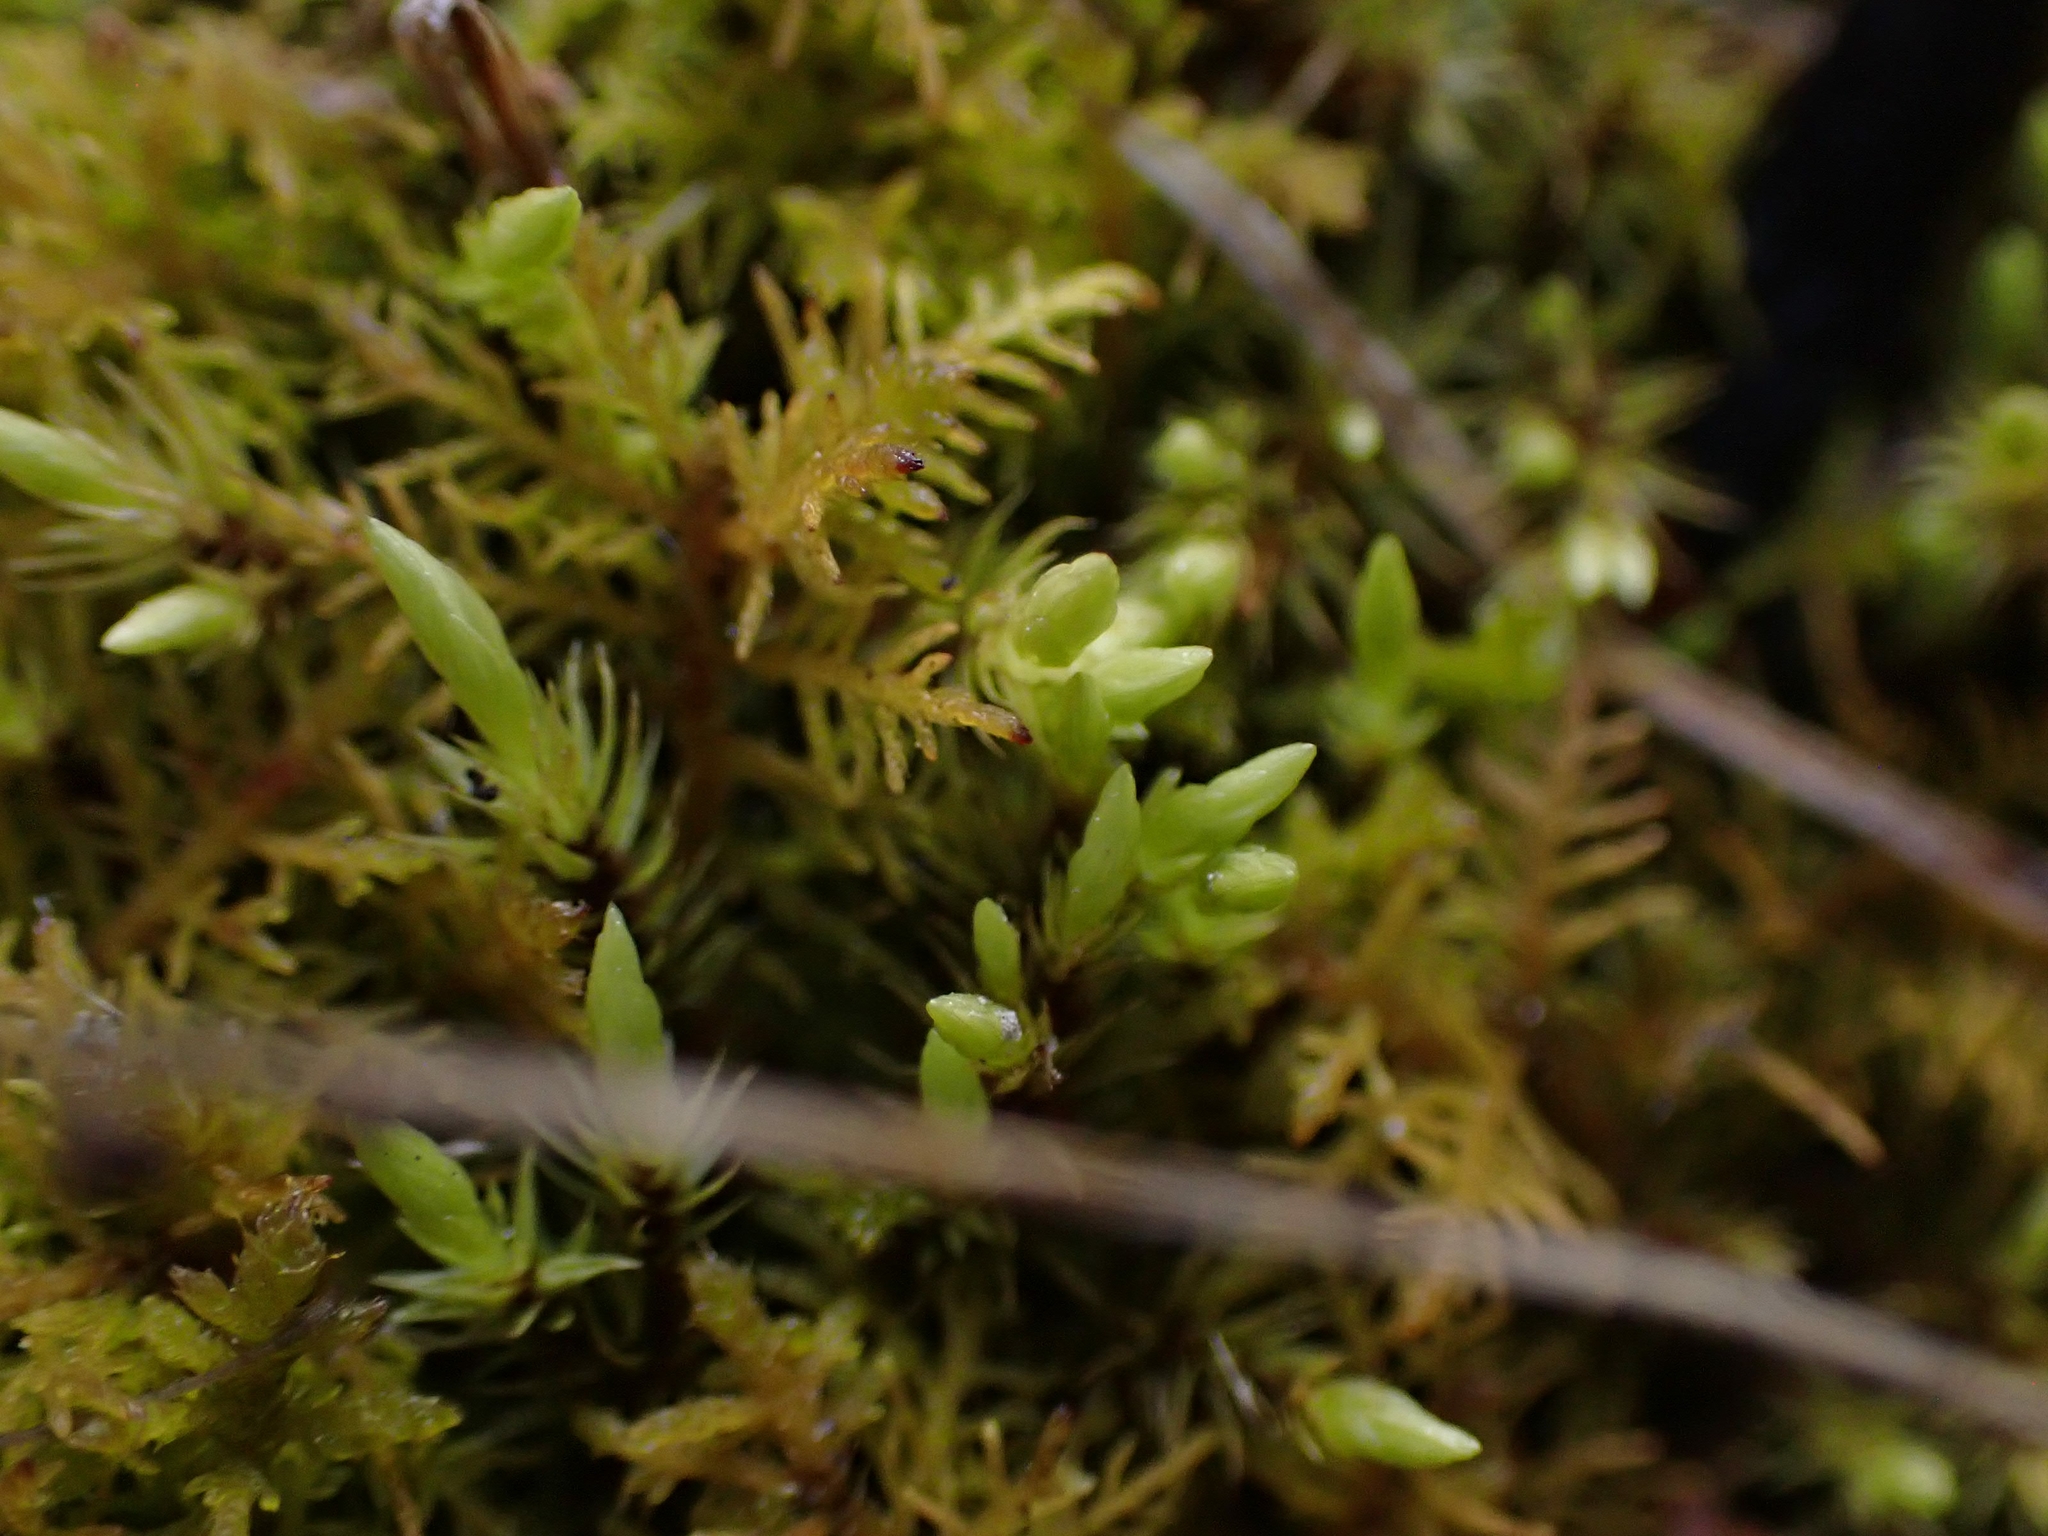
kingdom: Plantae
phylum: Bryophyta
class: Bryopsida
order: Aulacomniales
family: Aulacomniaceae
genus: Aulacomnium
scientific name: Aulacomnium palustre
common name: Bog groove-moss
